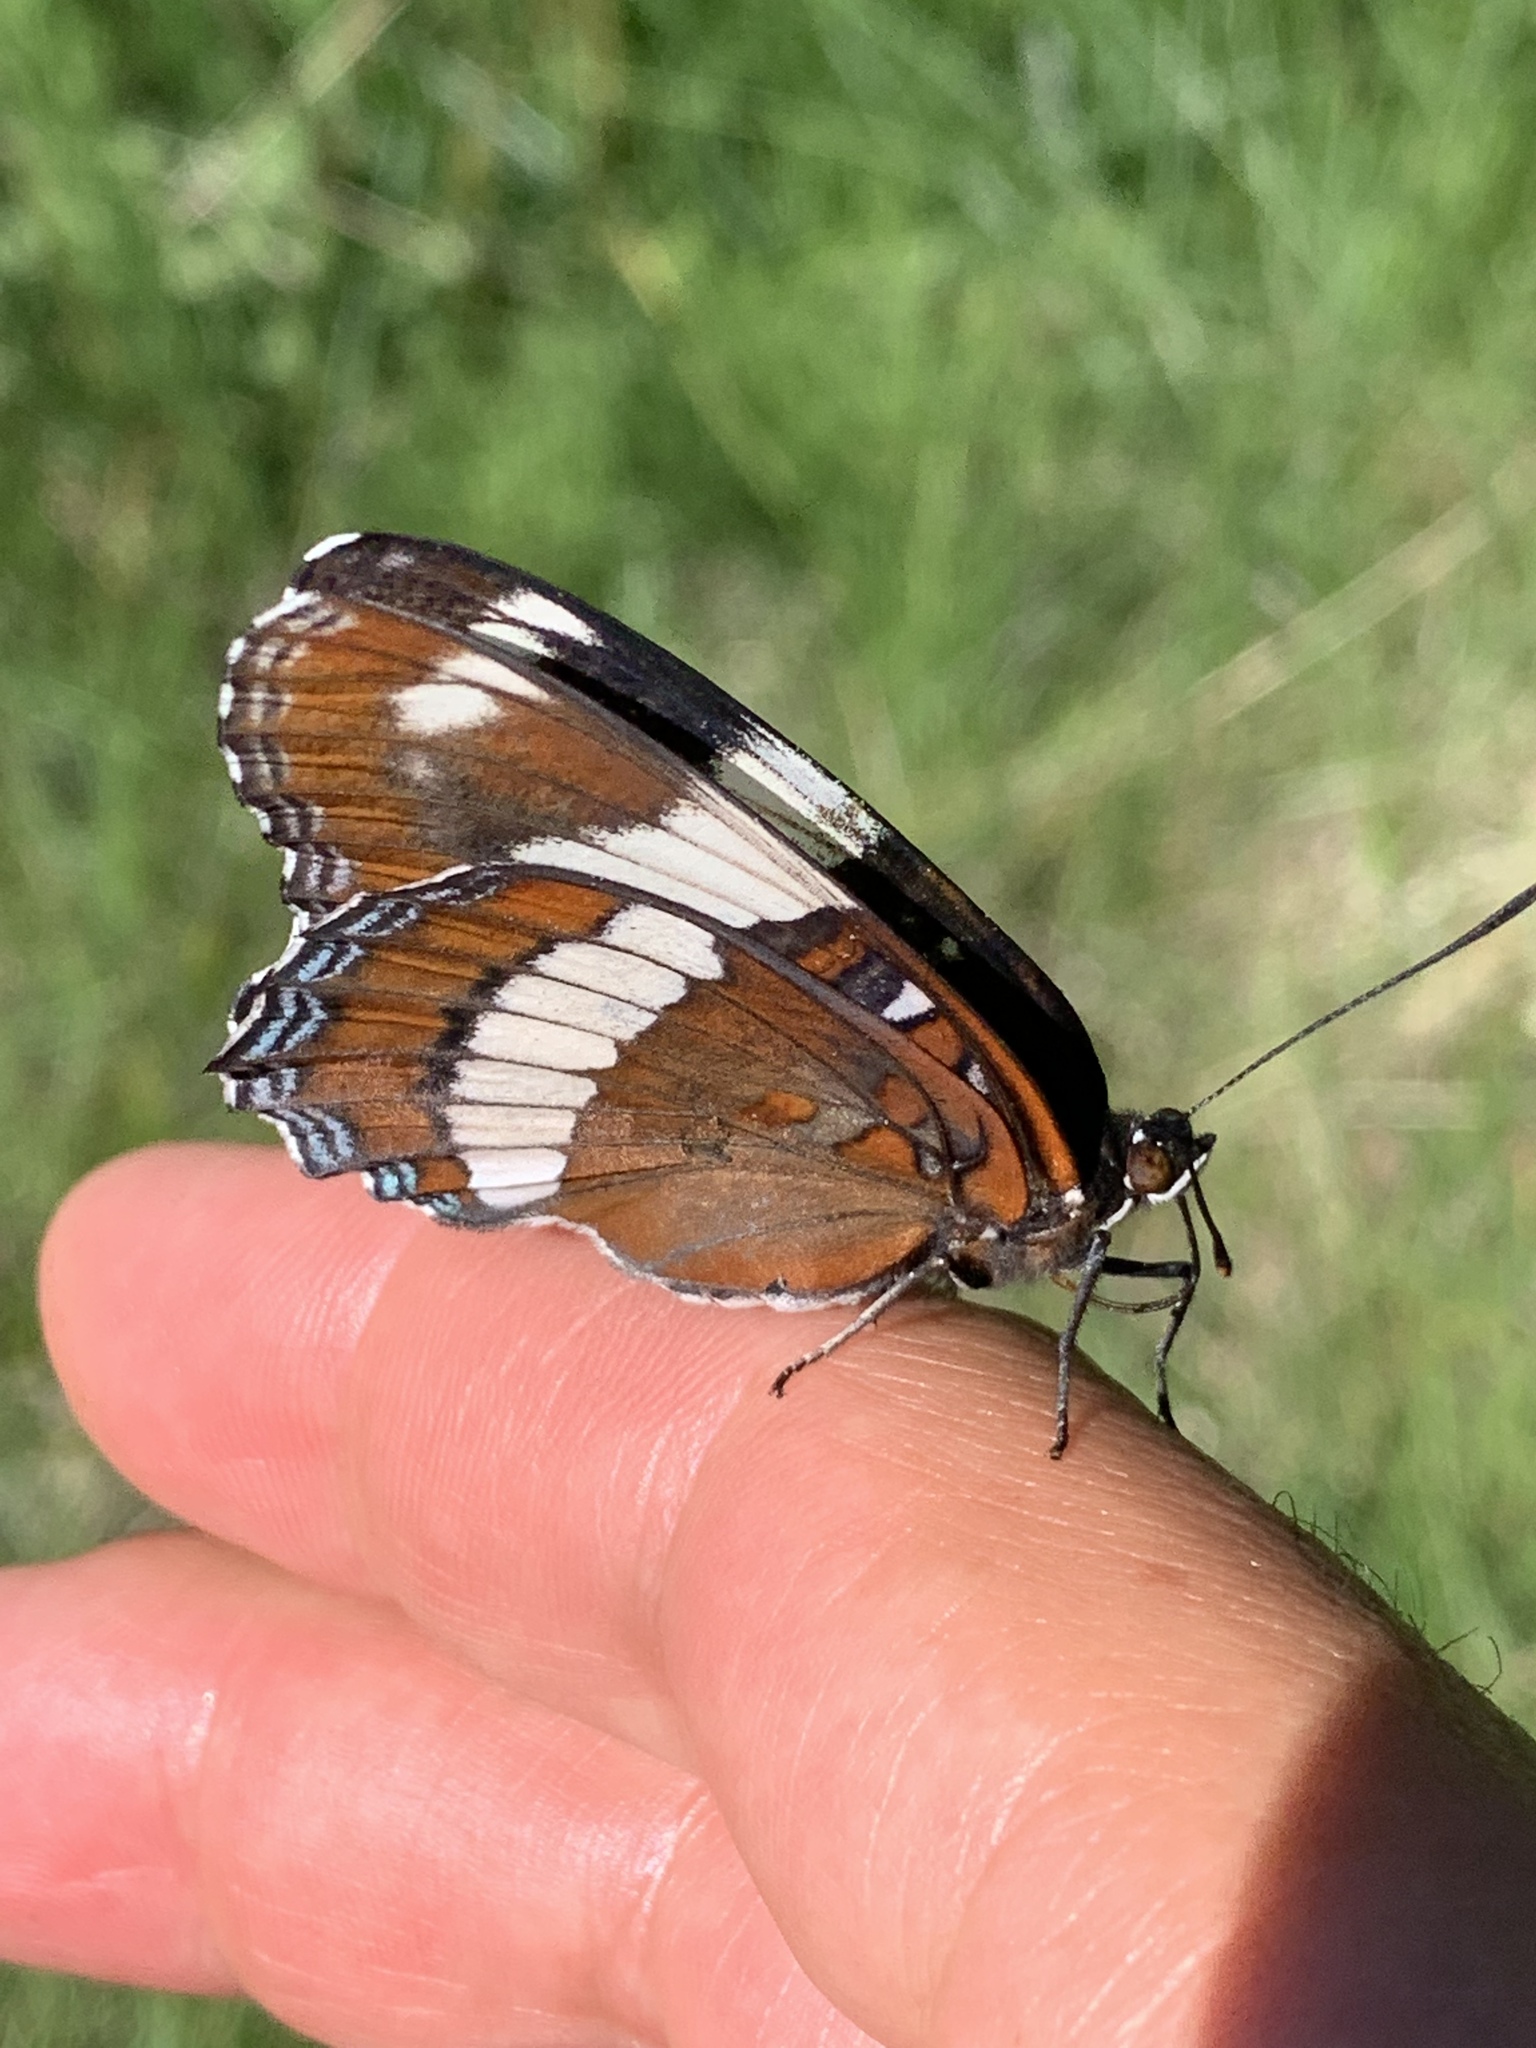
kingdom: Animalia
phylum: Arthropoda
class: Insecta
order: Lepidoptera
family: Nymphalidae
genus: Limenitis
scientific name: Limenitis arthemis
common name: Red-spotted admiral
